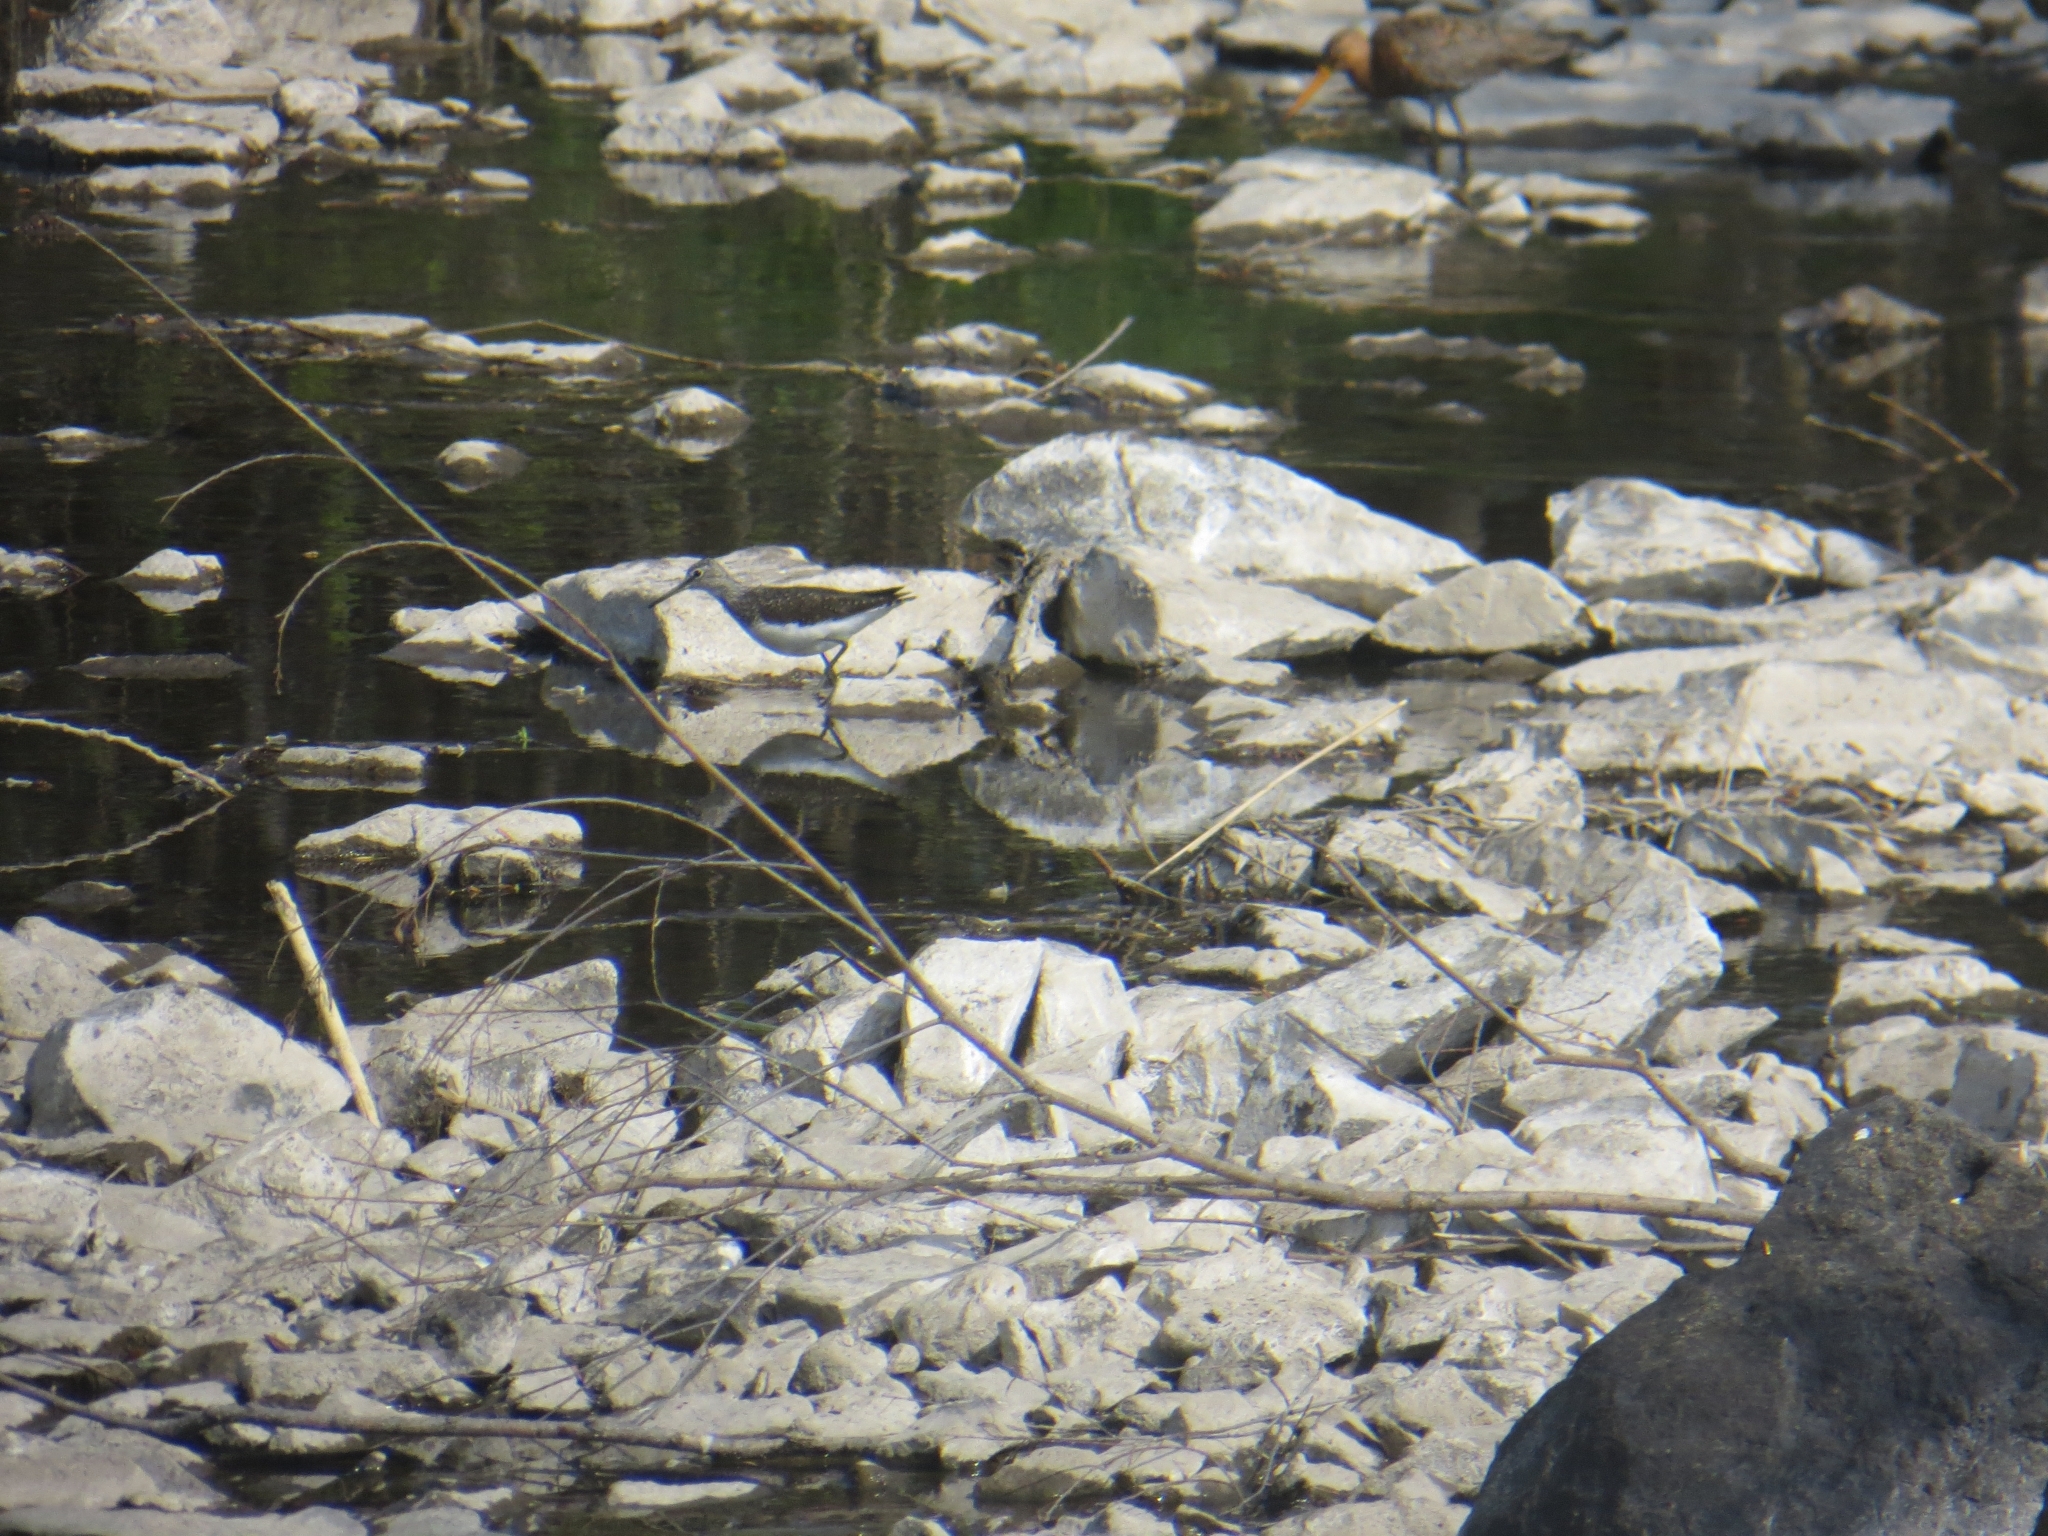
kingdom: Animalia
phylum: Chordata
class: Aves
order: Charadriiformes
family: Scolopacidae
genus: Tringa
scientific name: Tringa ochropus
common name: Green sandpiper
